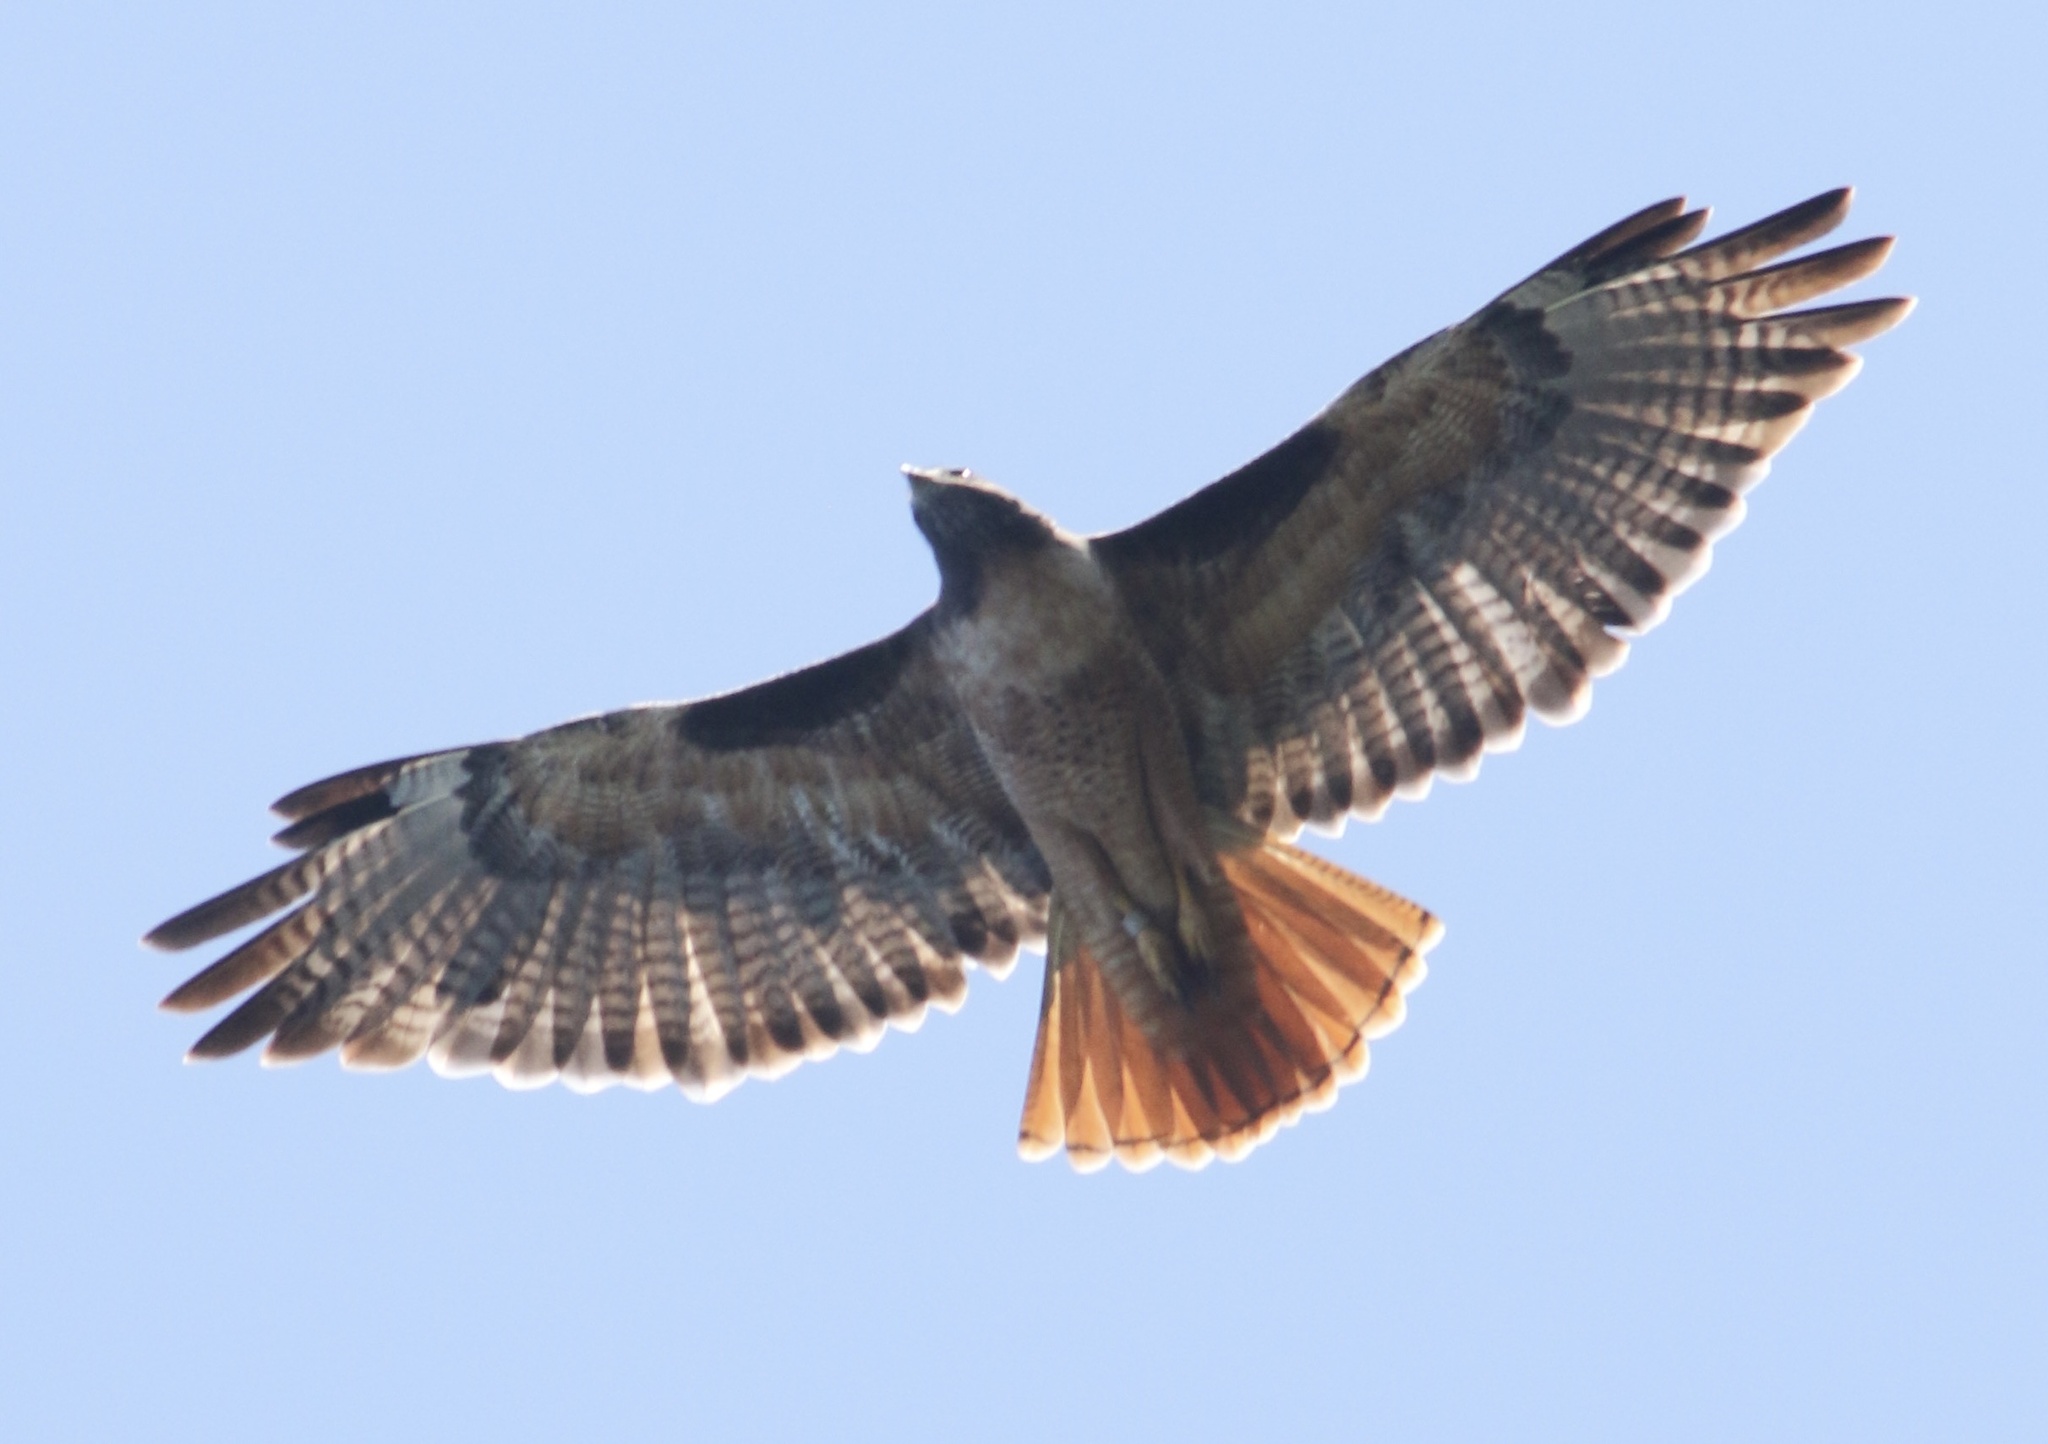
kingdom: Animalia
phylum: Chordata
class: Aves
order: Accipitriformes
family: Accipitridae
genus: Buteo
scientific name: Buteo jamaicensis
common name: Red-tailed hawk
